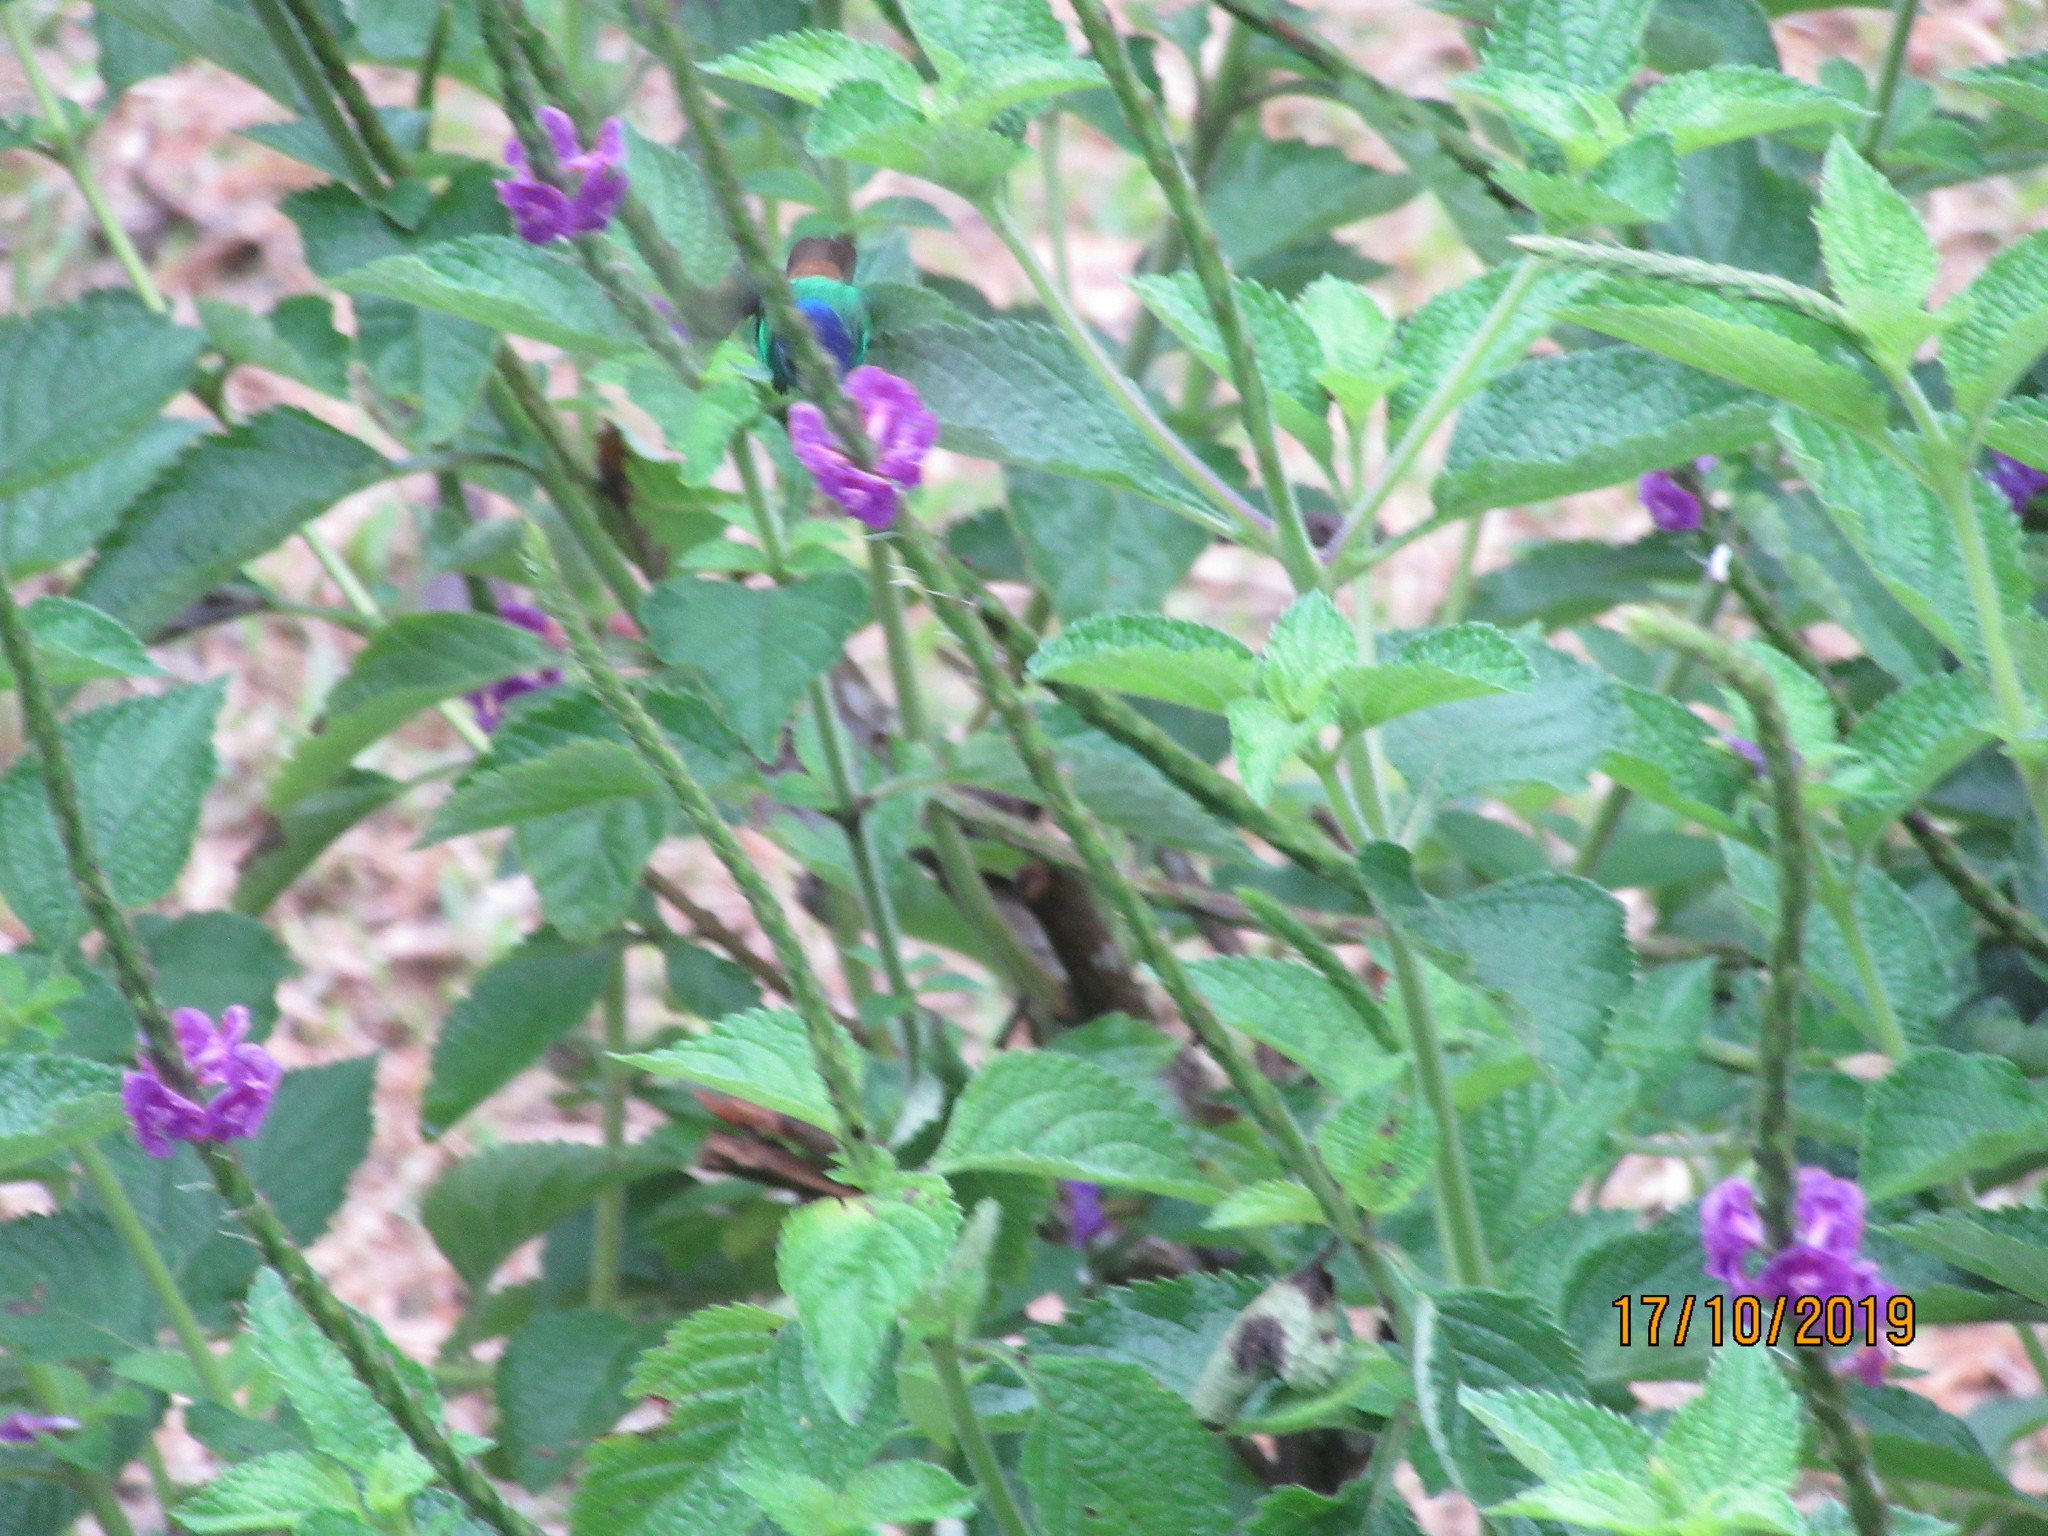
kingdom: Animalia
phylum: Chordata
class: Aves
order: Apodiformes
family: Trochilidae
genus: Chrysuronia
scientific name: Chrysuronia oenone
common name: Golden-tailed sapphire
